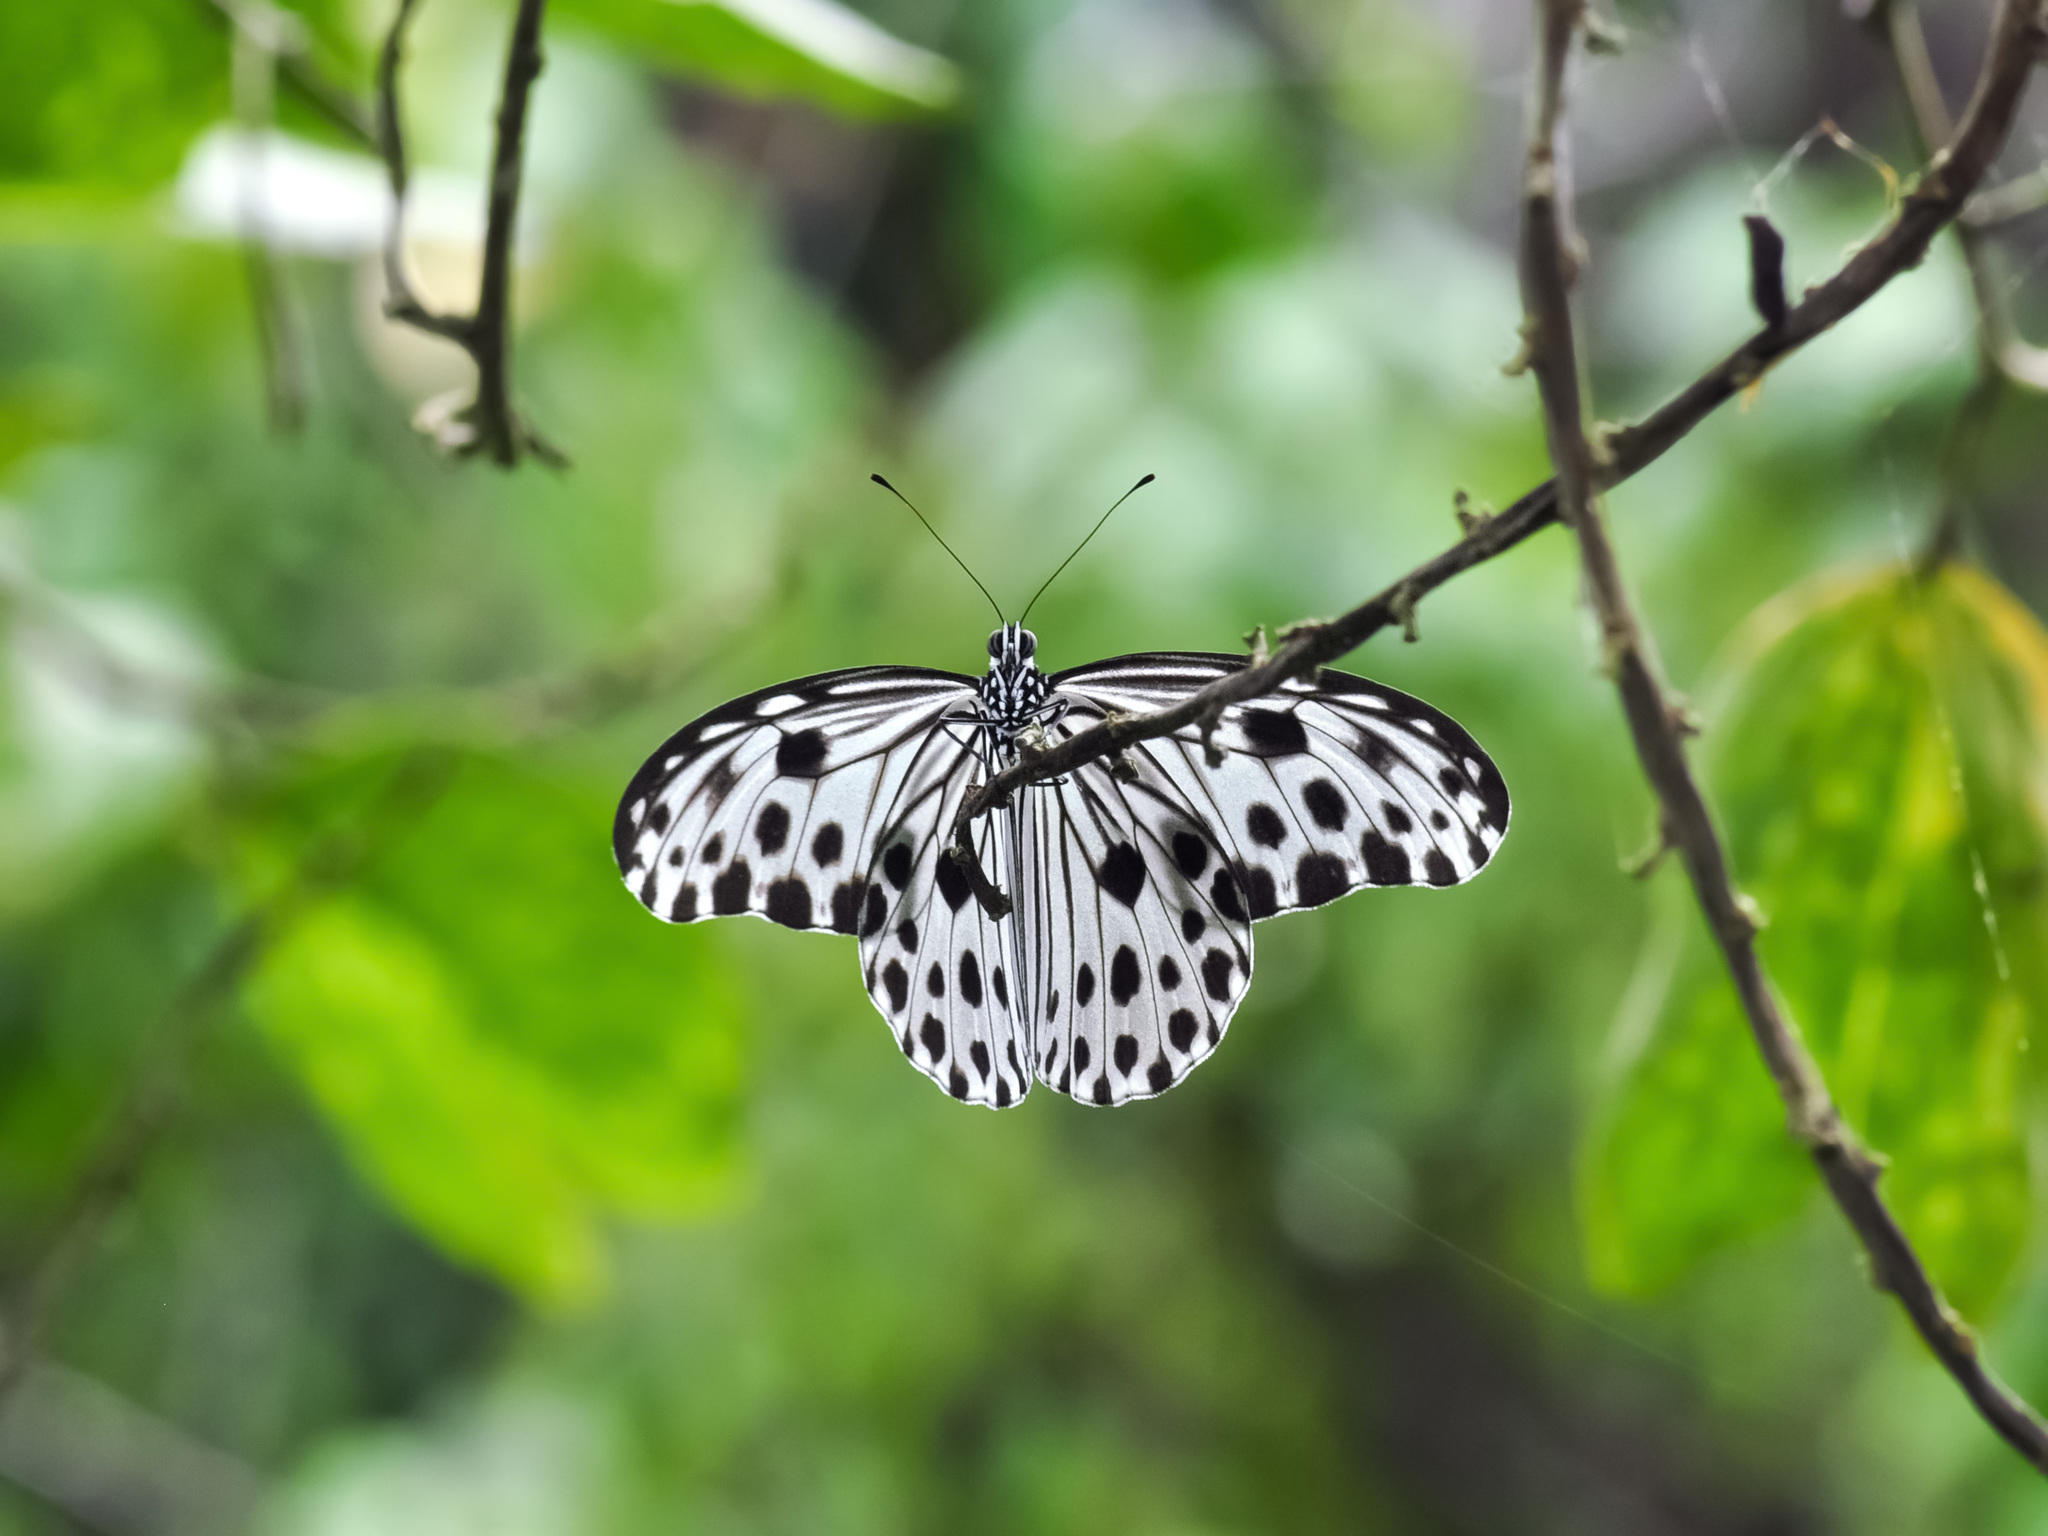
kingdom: Animalia
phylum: Arthropoda
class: Insecta
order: Lepidoptera
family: Nymphalidae
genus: Ideopsis
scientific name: Ideopsis gaura
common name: Smaller wood nymph
